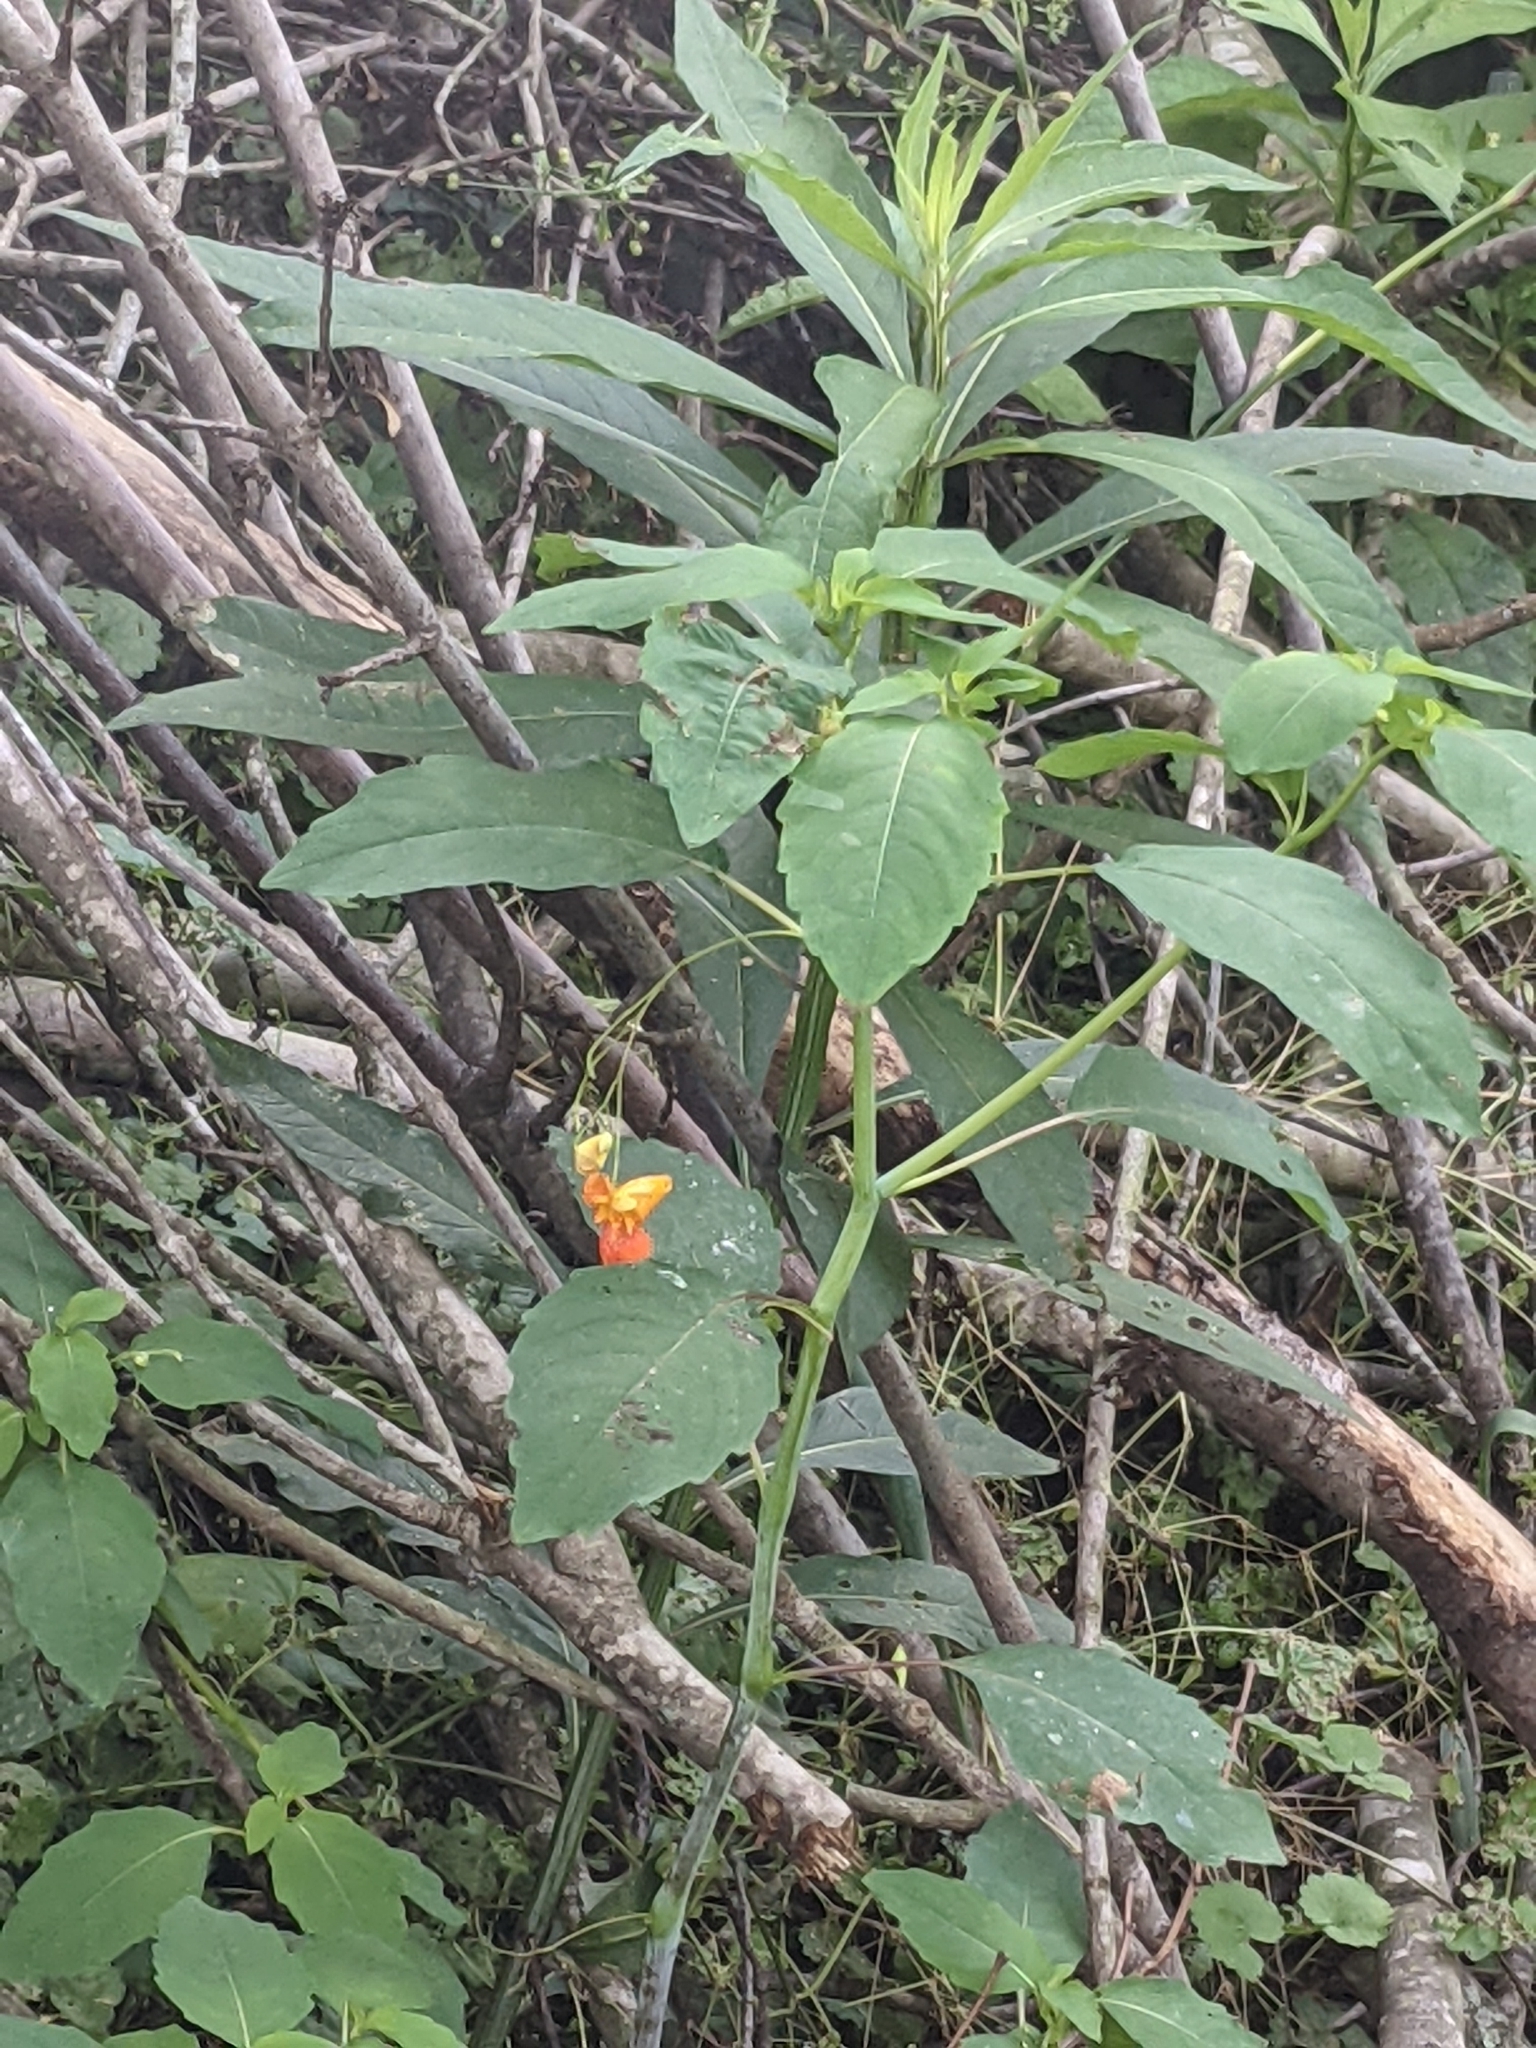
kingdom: Plantae
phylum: Tracheophyta
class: Magnoliopsida
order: Ericales
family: Balsaminaceae
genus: Impatiens
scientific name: Impatiens capensis
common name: Orange balsam
